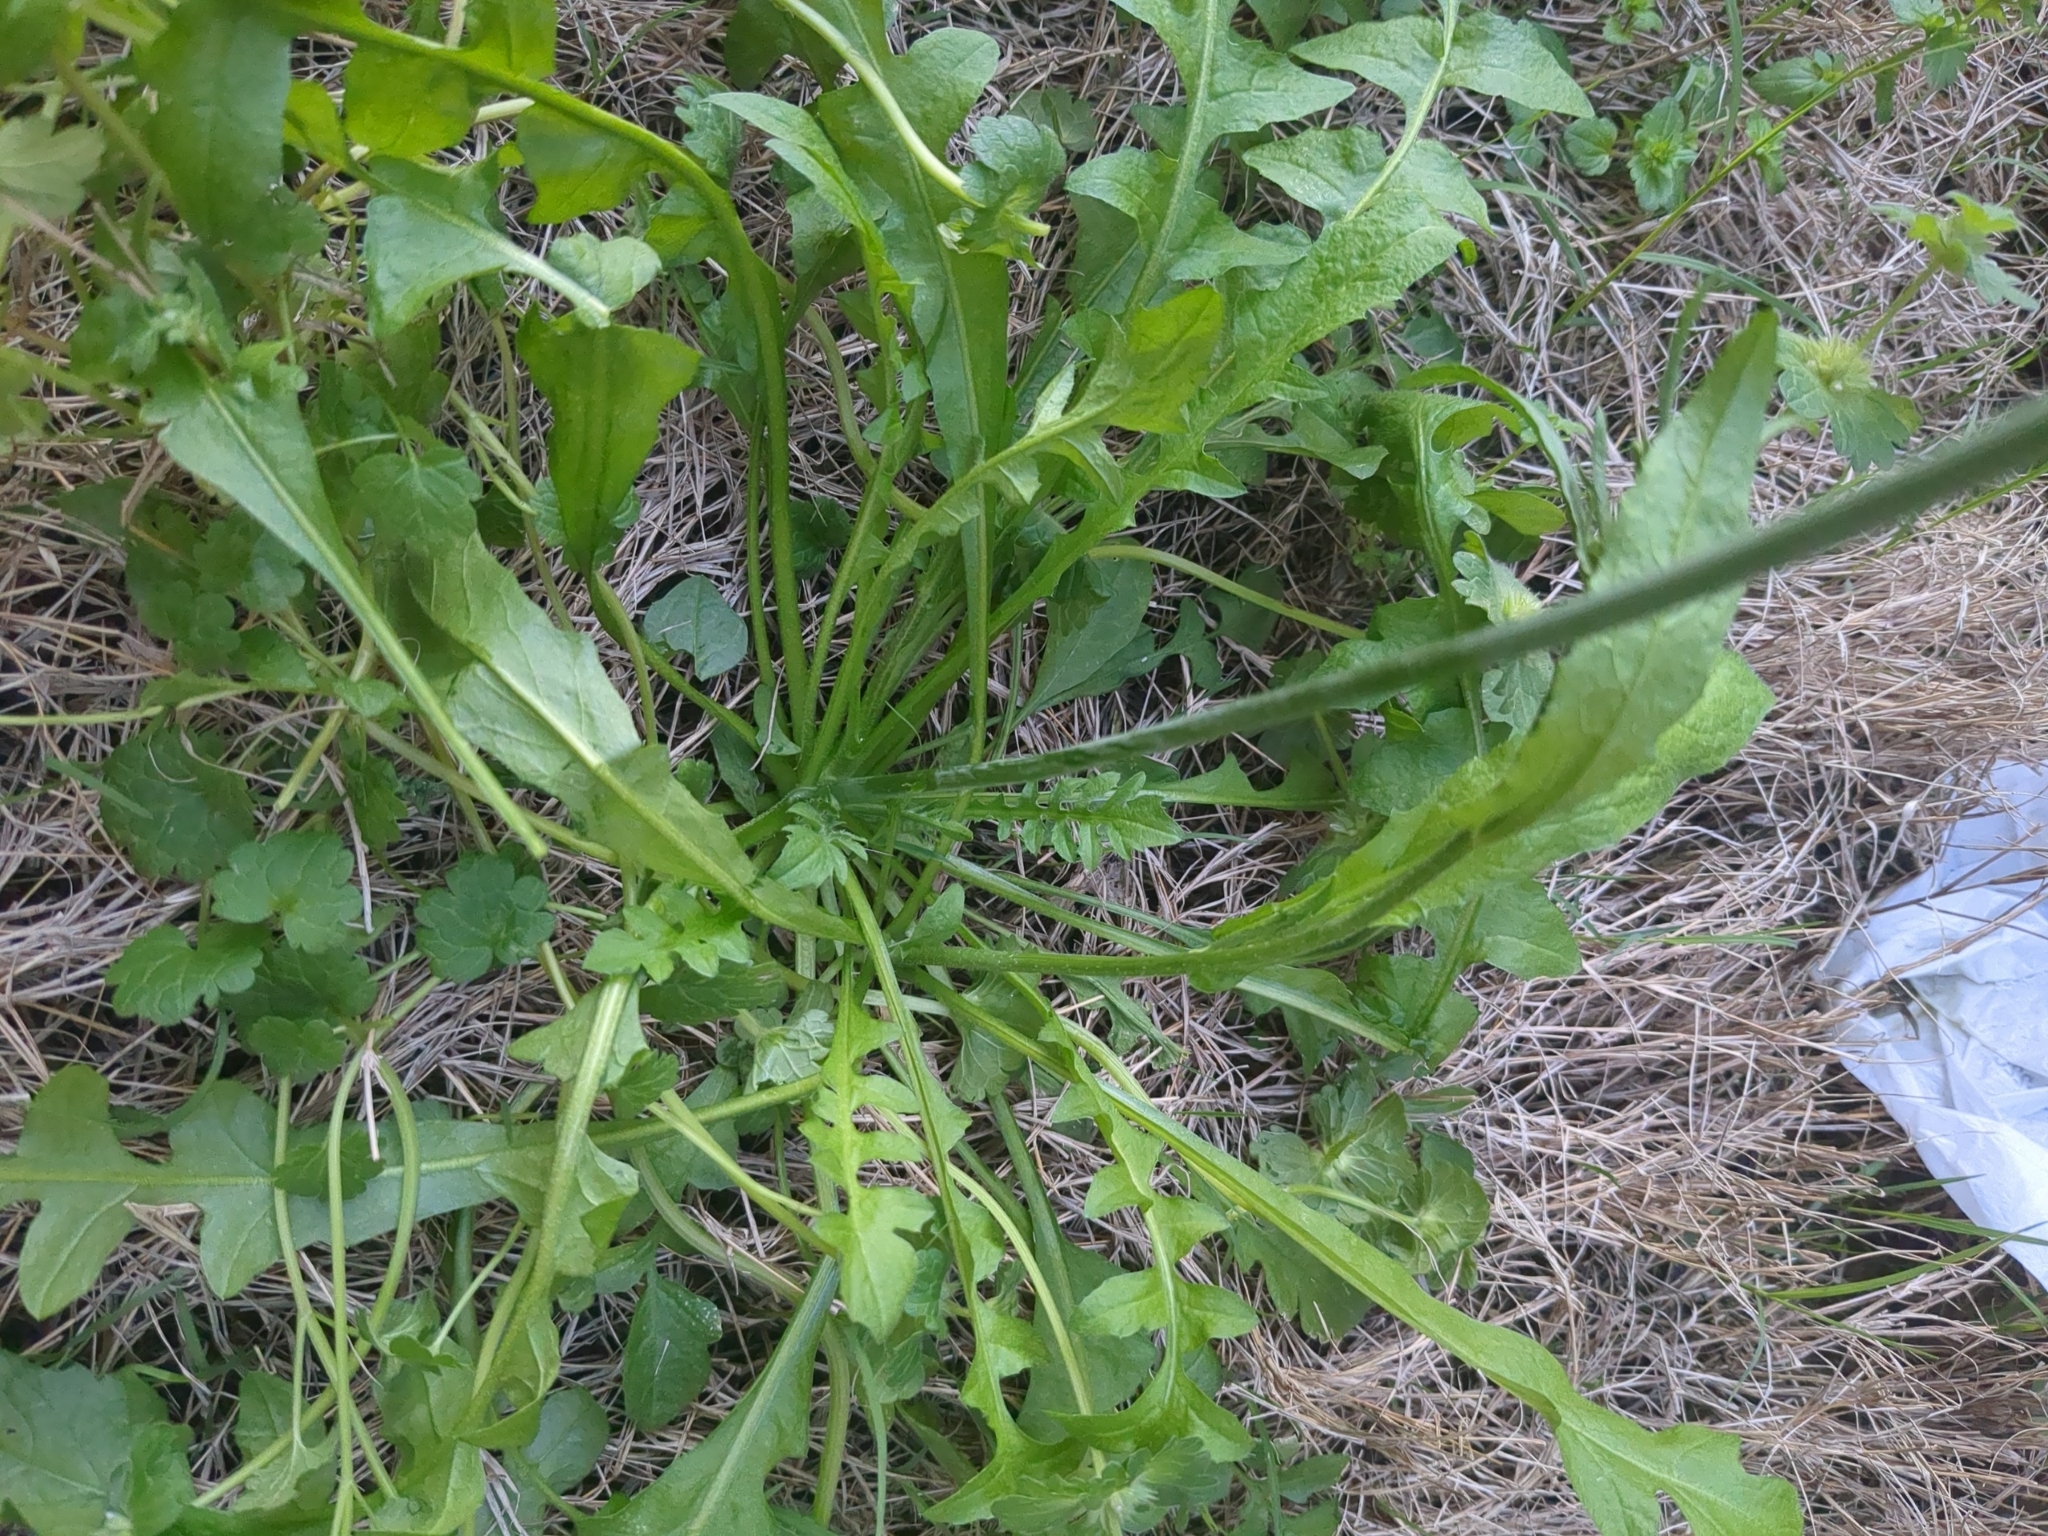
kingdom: Plantae
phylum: Tracheophyta
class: Magnoliopsida
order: Brassicales
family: Brassicaceae
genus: Capsella
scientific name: Capsella bursa-pastoris
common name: Shepherd's purse
